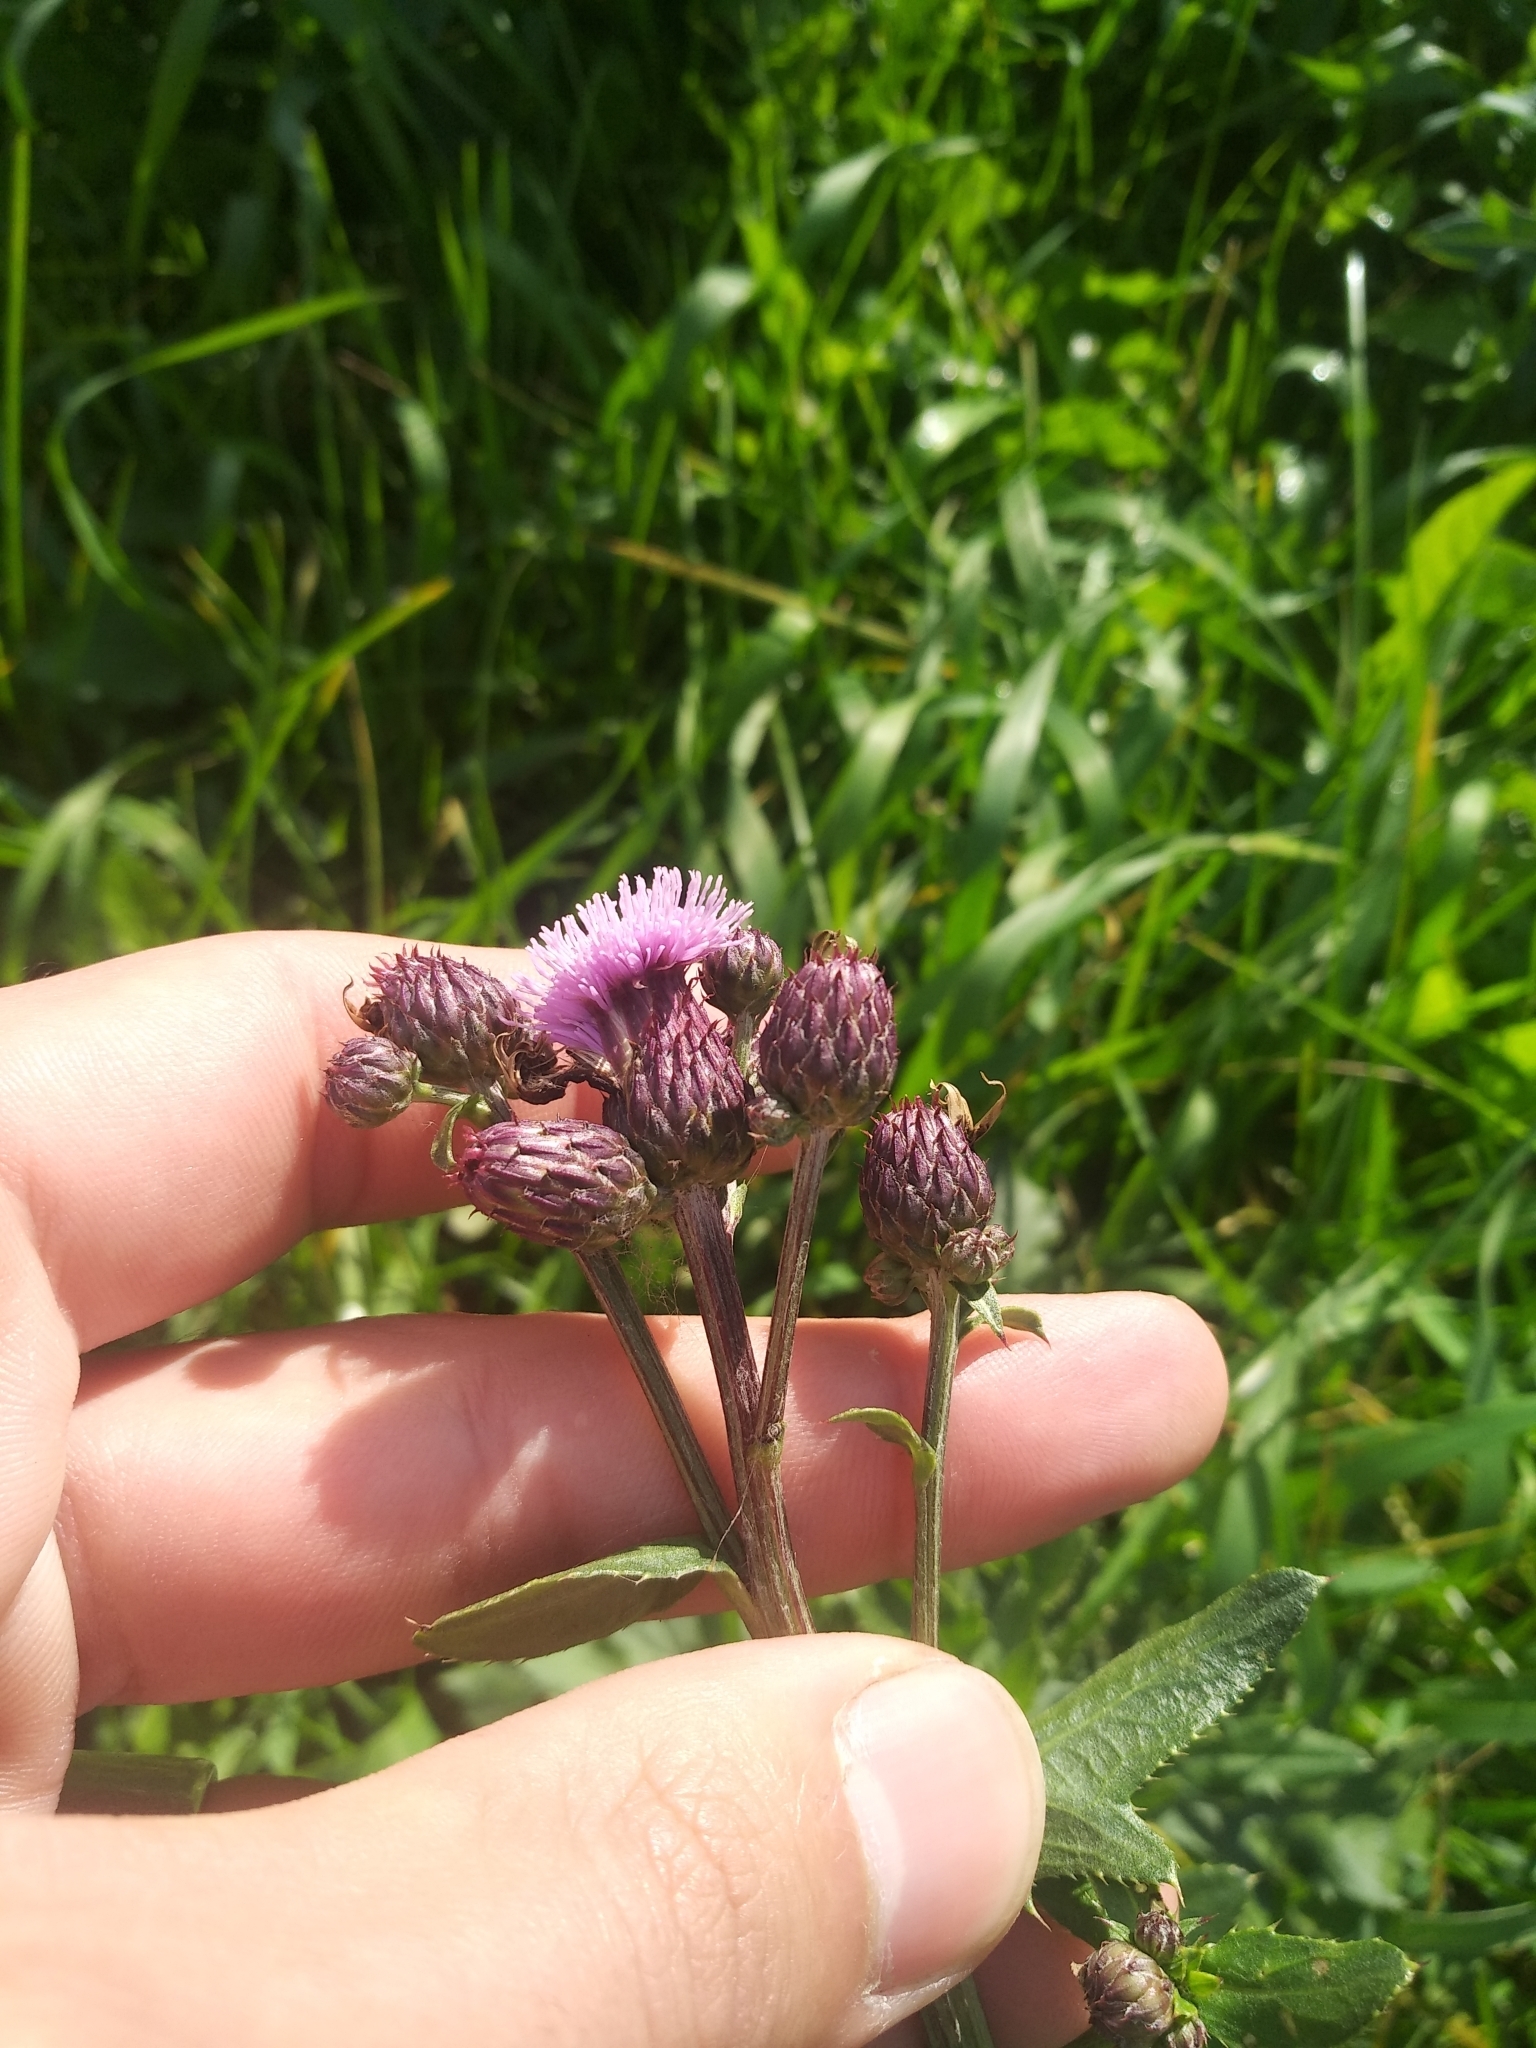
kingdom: Plantae
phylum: Tracheophyta
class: Magnoliopsida
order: Asterales
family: Asteraceae
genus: Cirsium
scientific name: Cirsium arvense
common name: Creeping thistle
